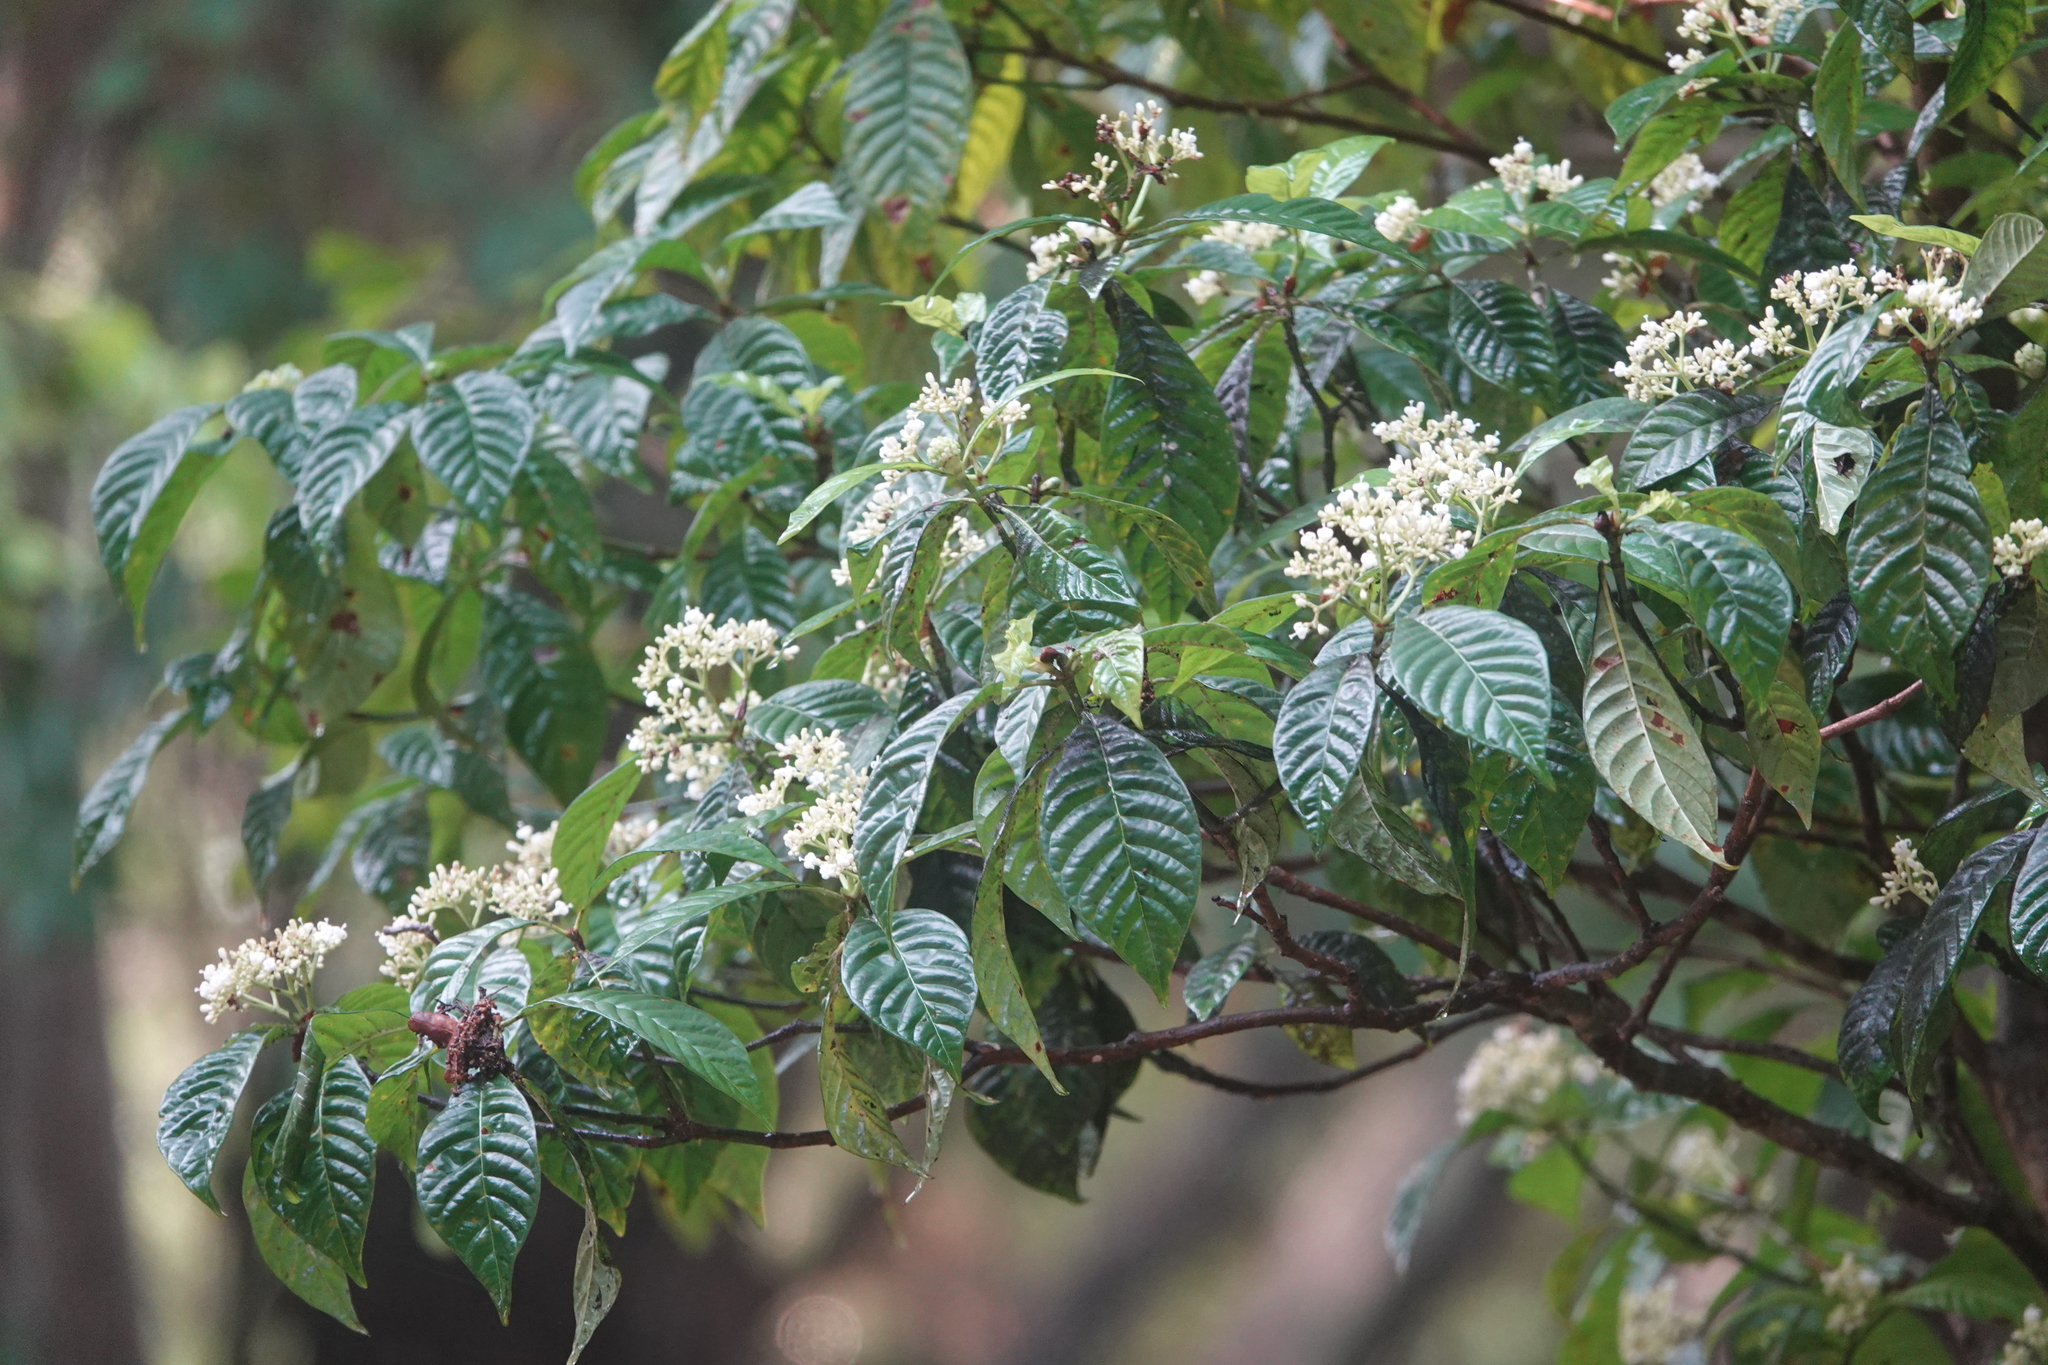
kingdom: Plantae
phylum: Tracheophyta
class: Magnoliopsida
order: Gentianales
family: Rubiaceae
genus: Psychotria
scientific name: Psychotria nervosa
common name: Bastard cankerberry
